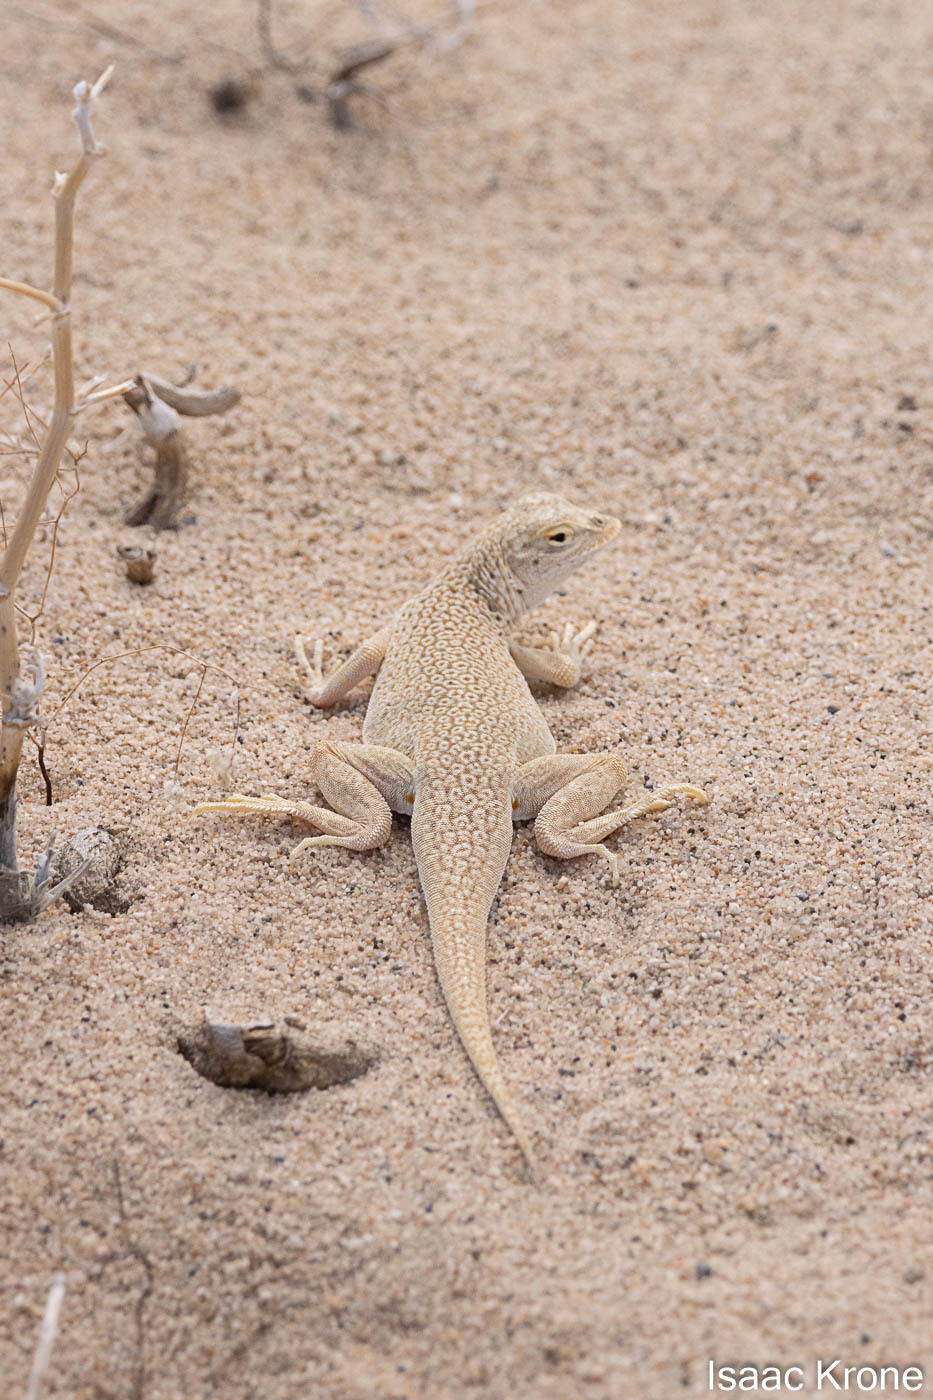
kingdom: Animalia
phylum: Chordata
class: Squamata
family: Phrynosomatidae
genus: Uma
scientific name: Uma scoparia
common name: Mojave fringe-toed lizard
